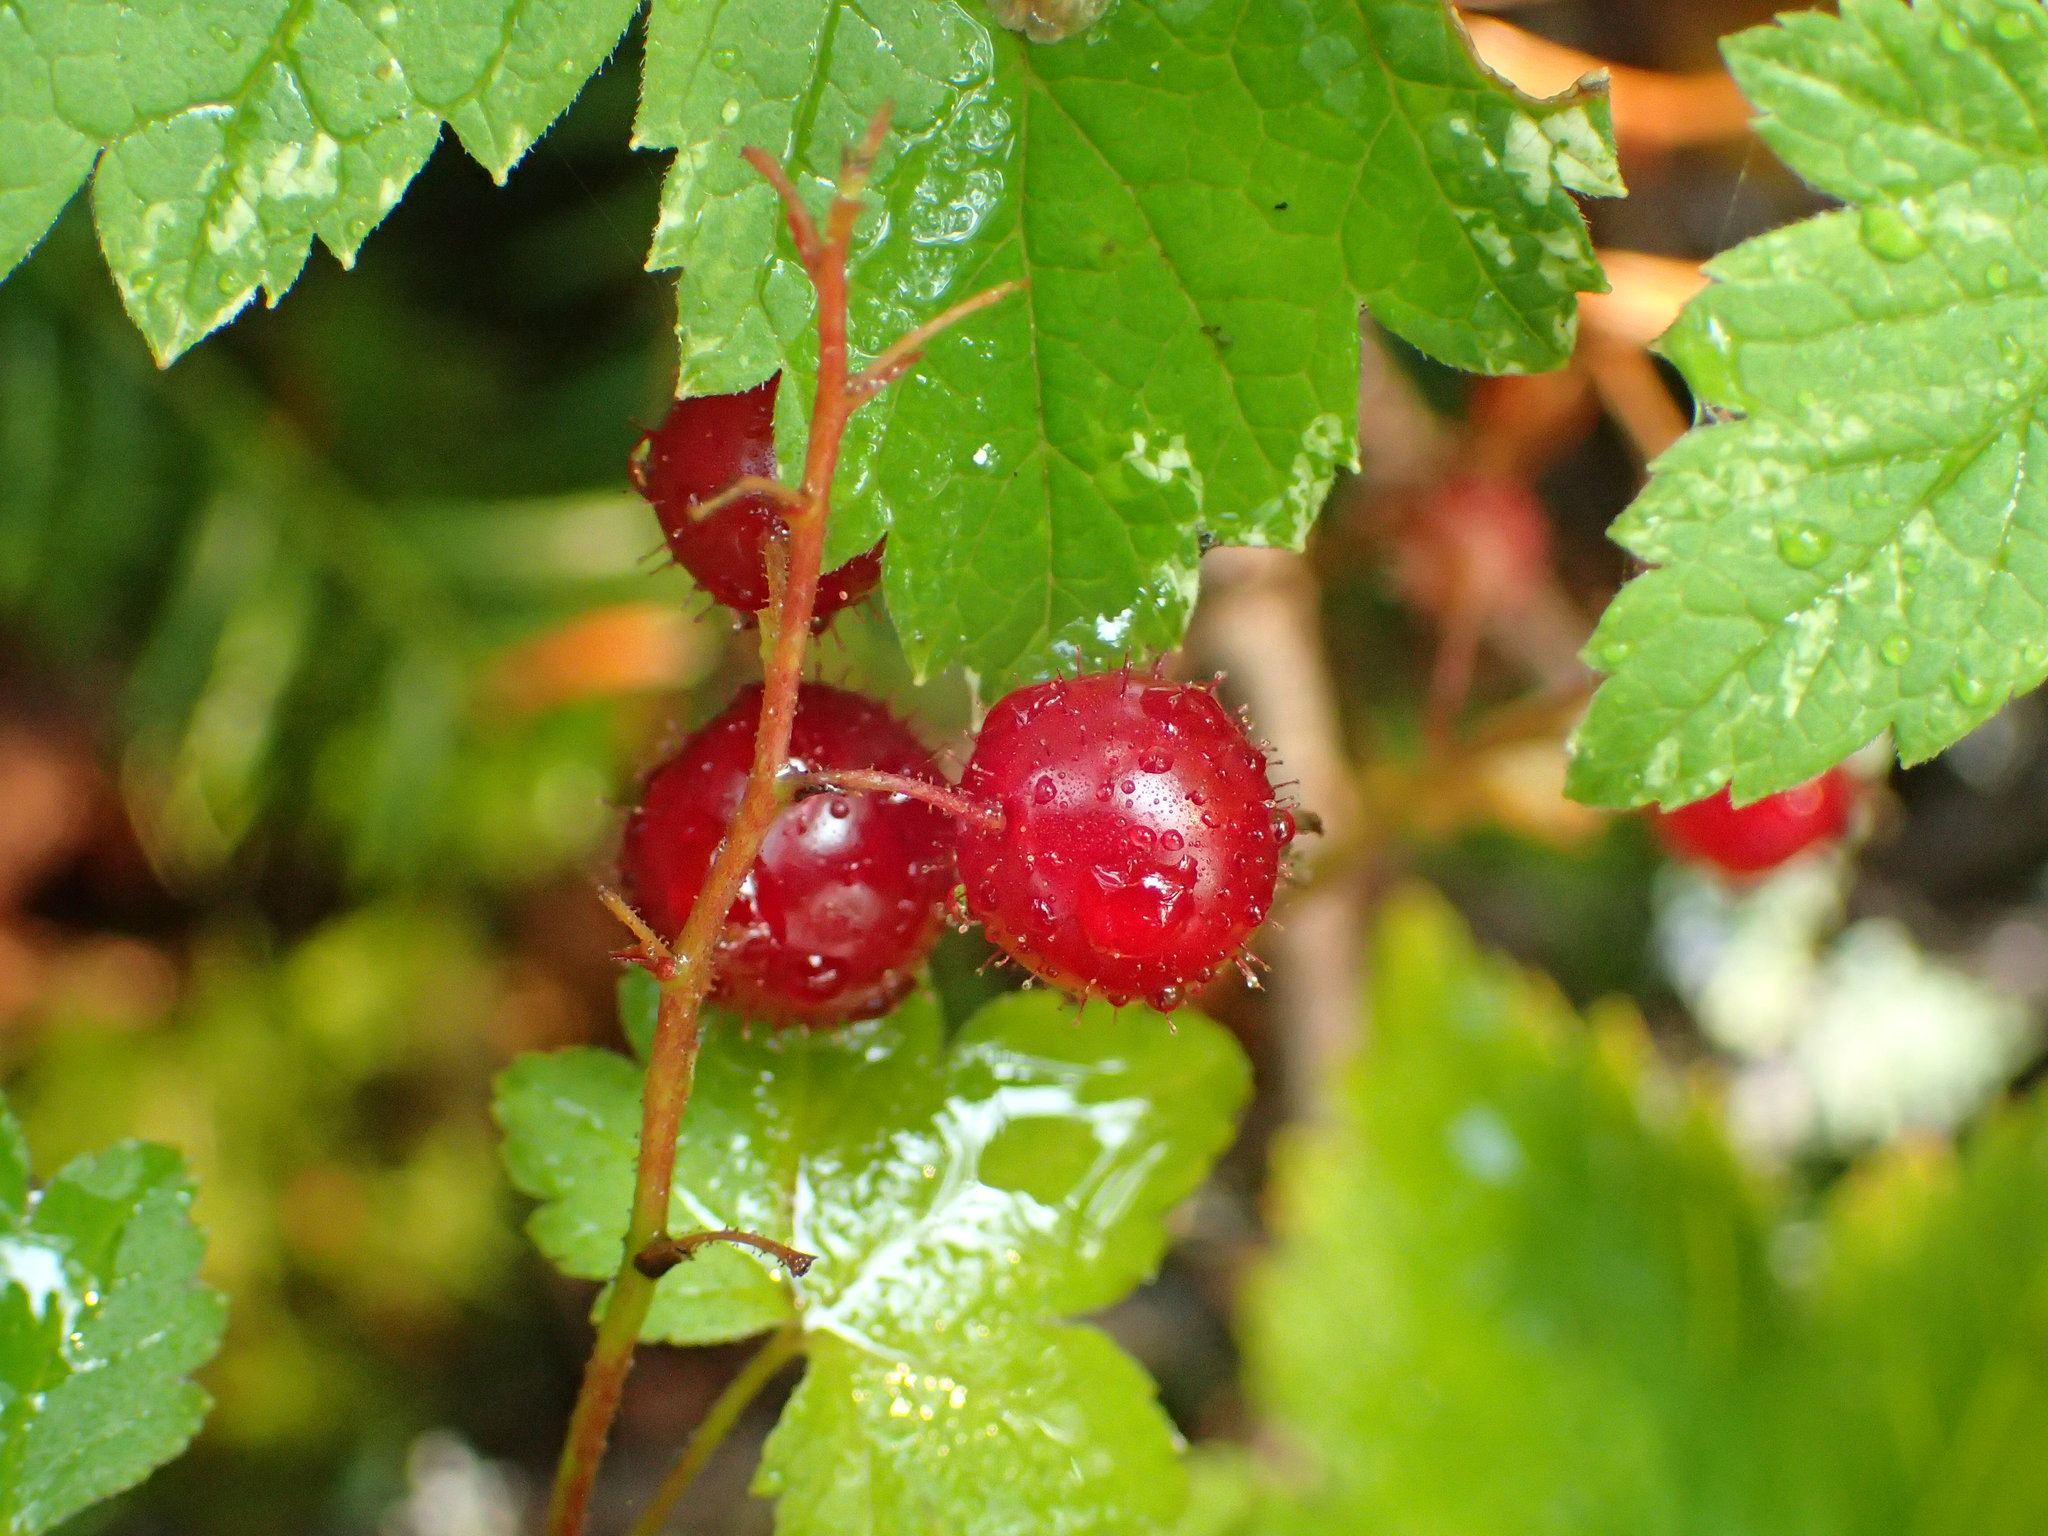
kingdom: Plantae
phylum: Tracheophyta
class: Magnoliopsida
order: Saxifragales
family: Grossulariaceae
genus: Ribes
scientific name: Ribes glandulosum
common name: Skunk currant
